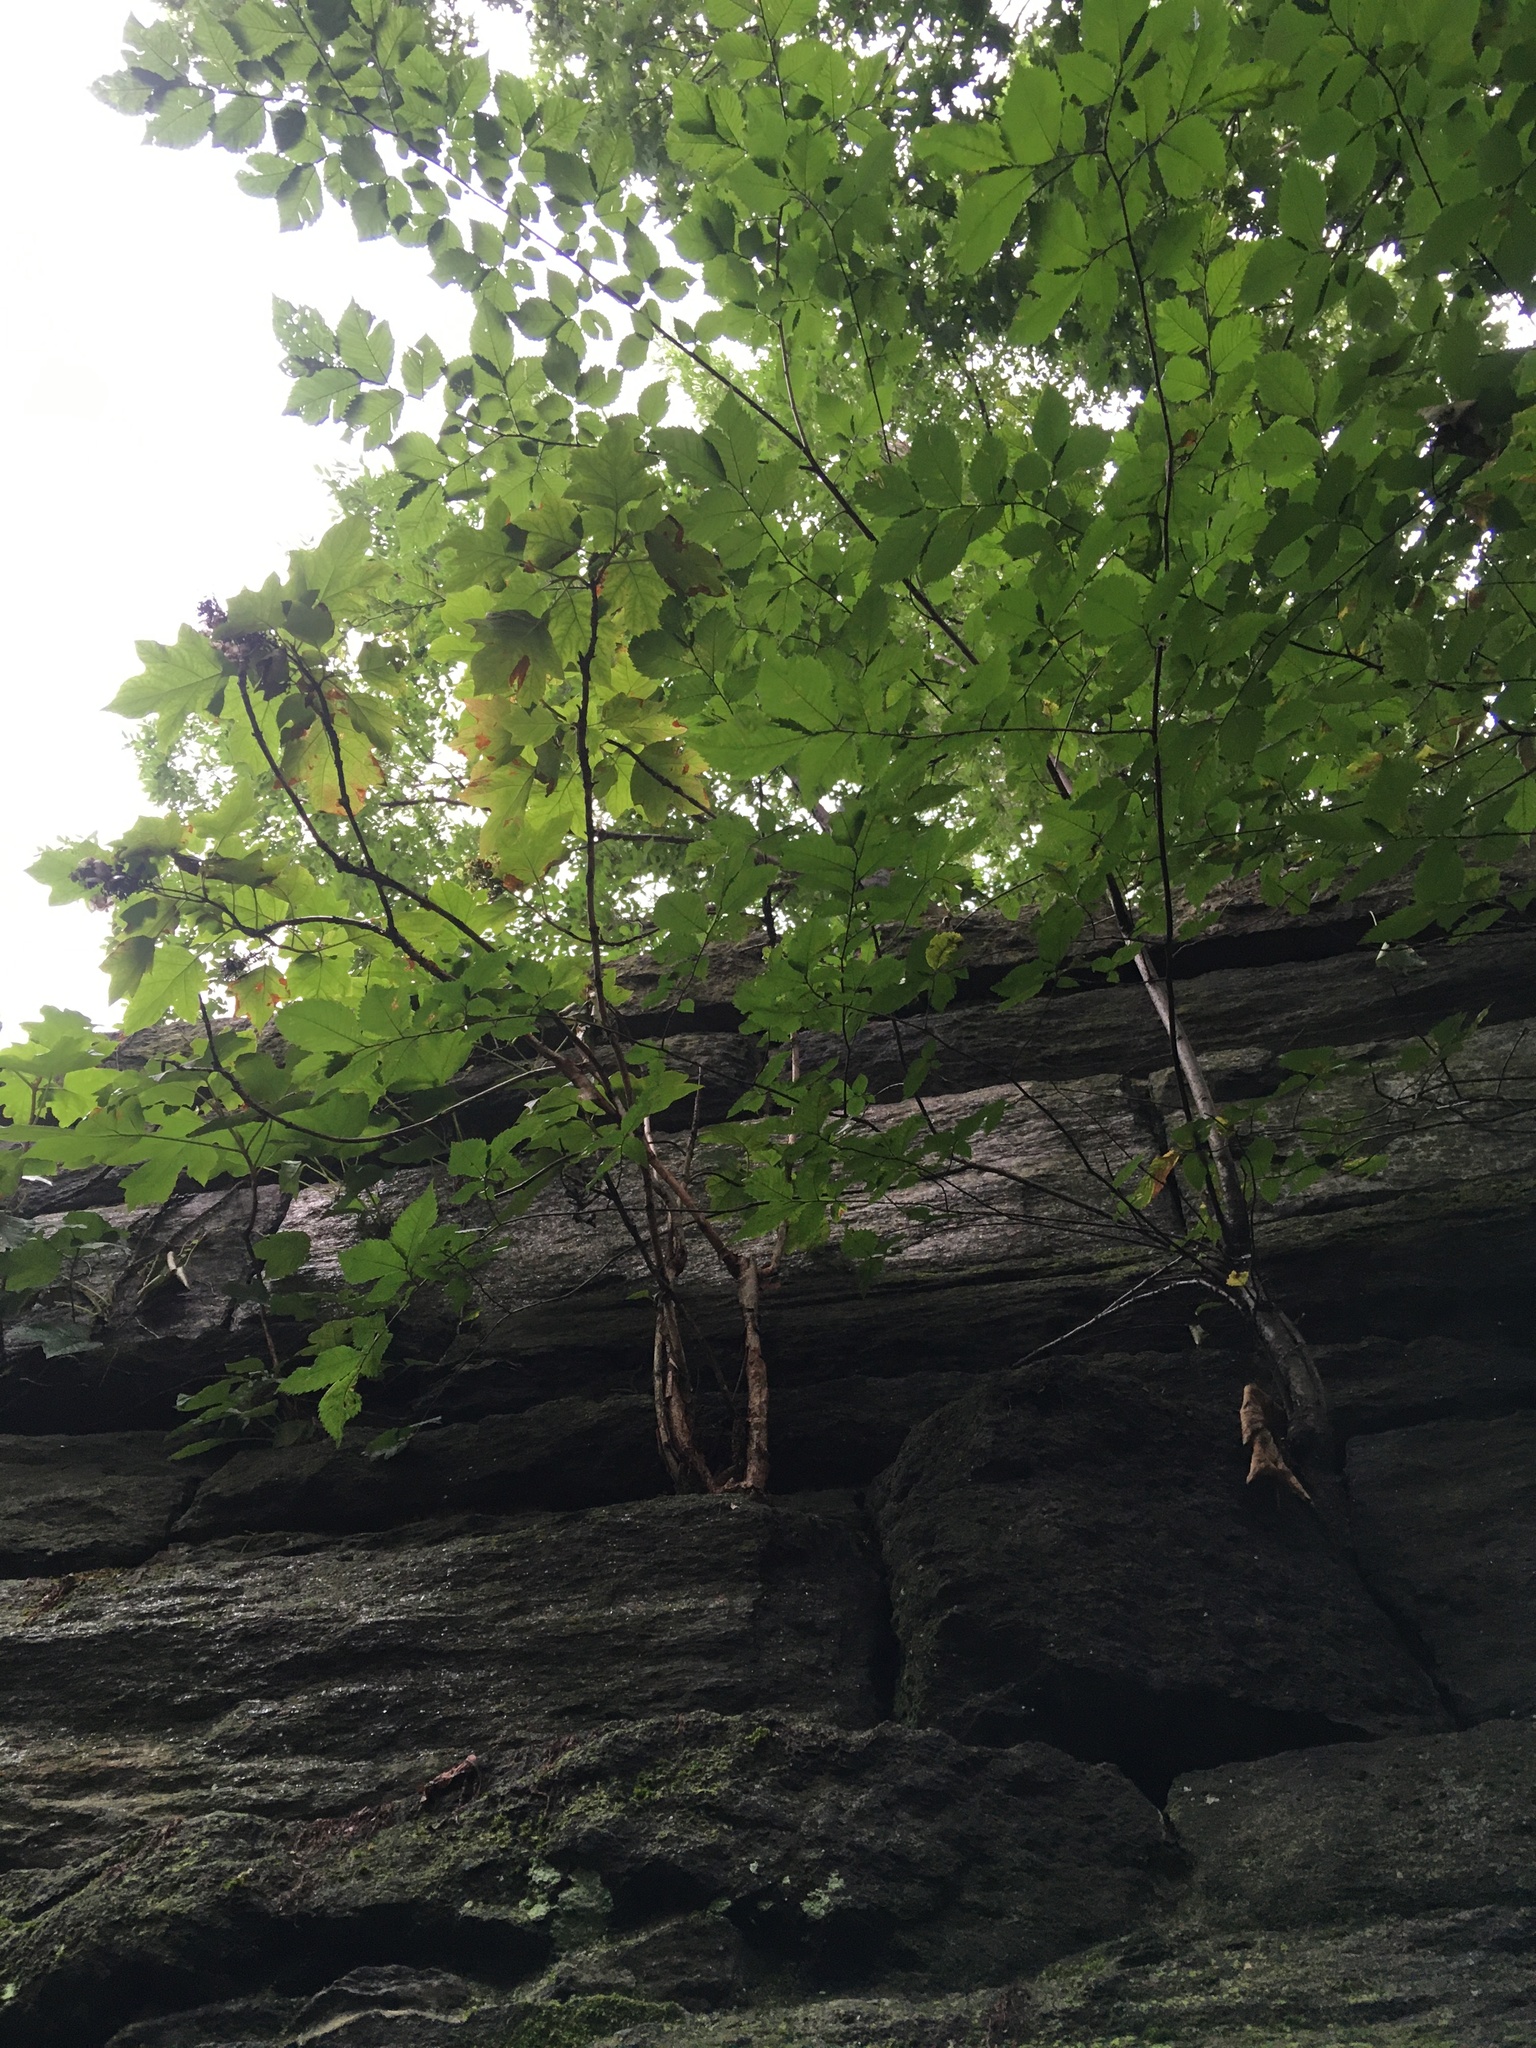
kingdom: Plantae
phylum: Tracheophyta
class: Magnoliopsida
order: Cornales
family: Hydrangeaceae
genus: Hydrangea
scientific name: Hydrangea quercifolia
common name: Oak-leaf hydrangea
